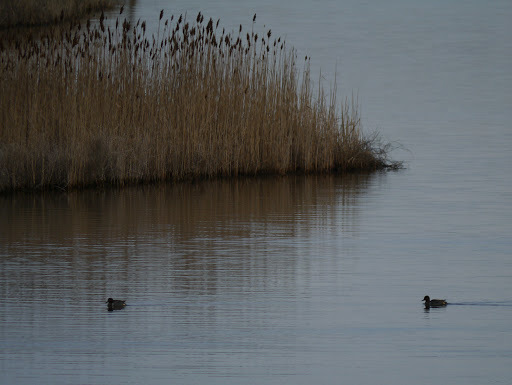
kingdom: Animalia
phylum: Chordata
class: Aves
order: Anseriformes
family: Anatidae
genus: Anas
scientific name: Anas crecca
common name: Eurasian teal
